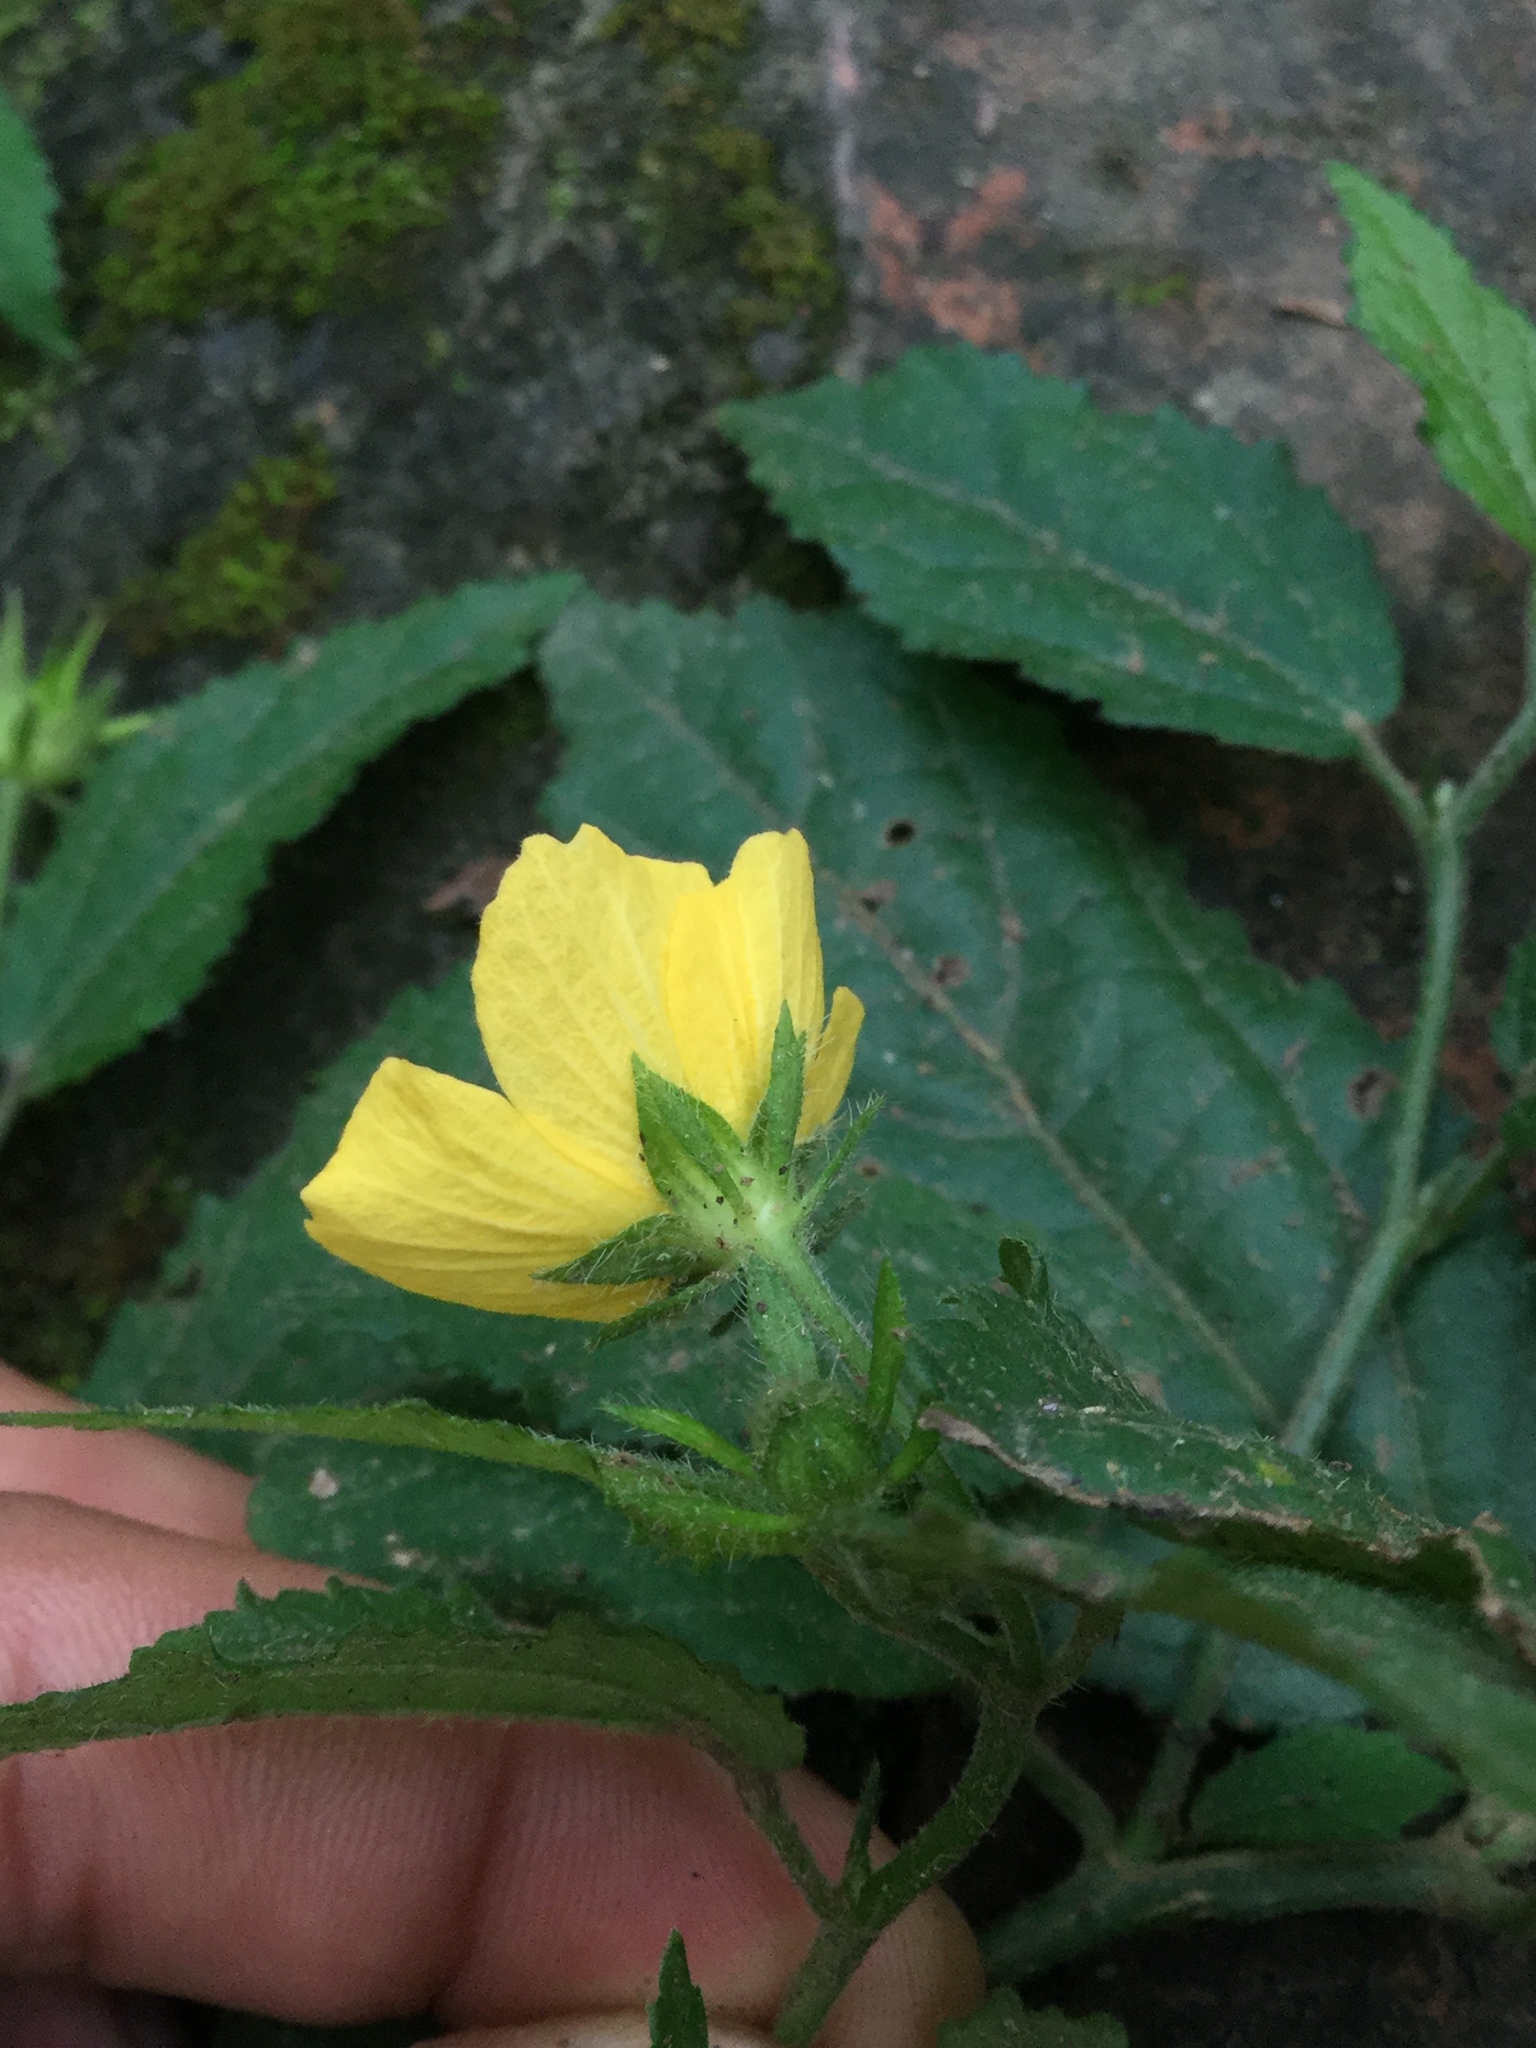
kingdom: Plantae
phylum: Tracheophyta
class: Magnoliopsida
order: Malvales
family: Malvaceae
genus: Pavonia
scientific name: Pavonia uniflora
